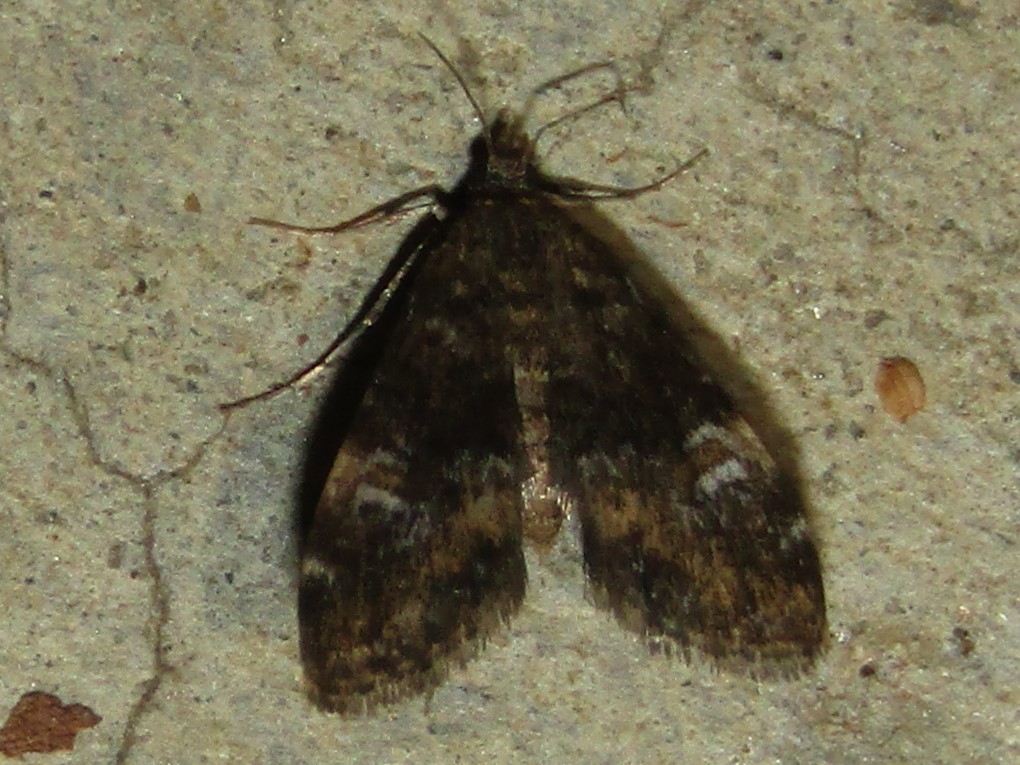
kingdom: Animalia
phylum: Arthropoda
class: Insecta
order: Lepidoptera
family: Crambidae
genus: Elophila
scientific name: Elophila obliteralis
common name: Waterlily leafcutter moth
